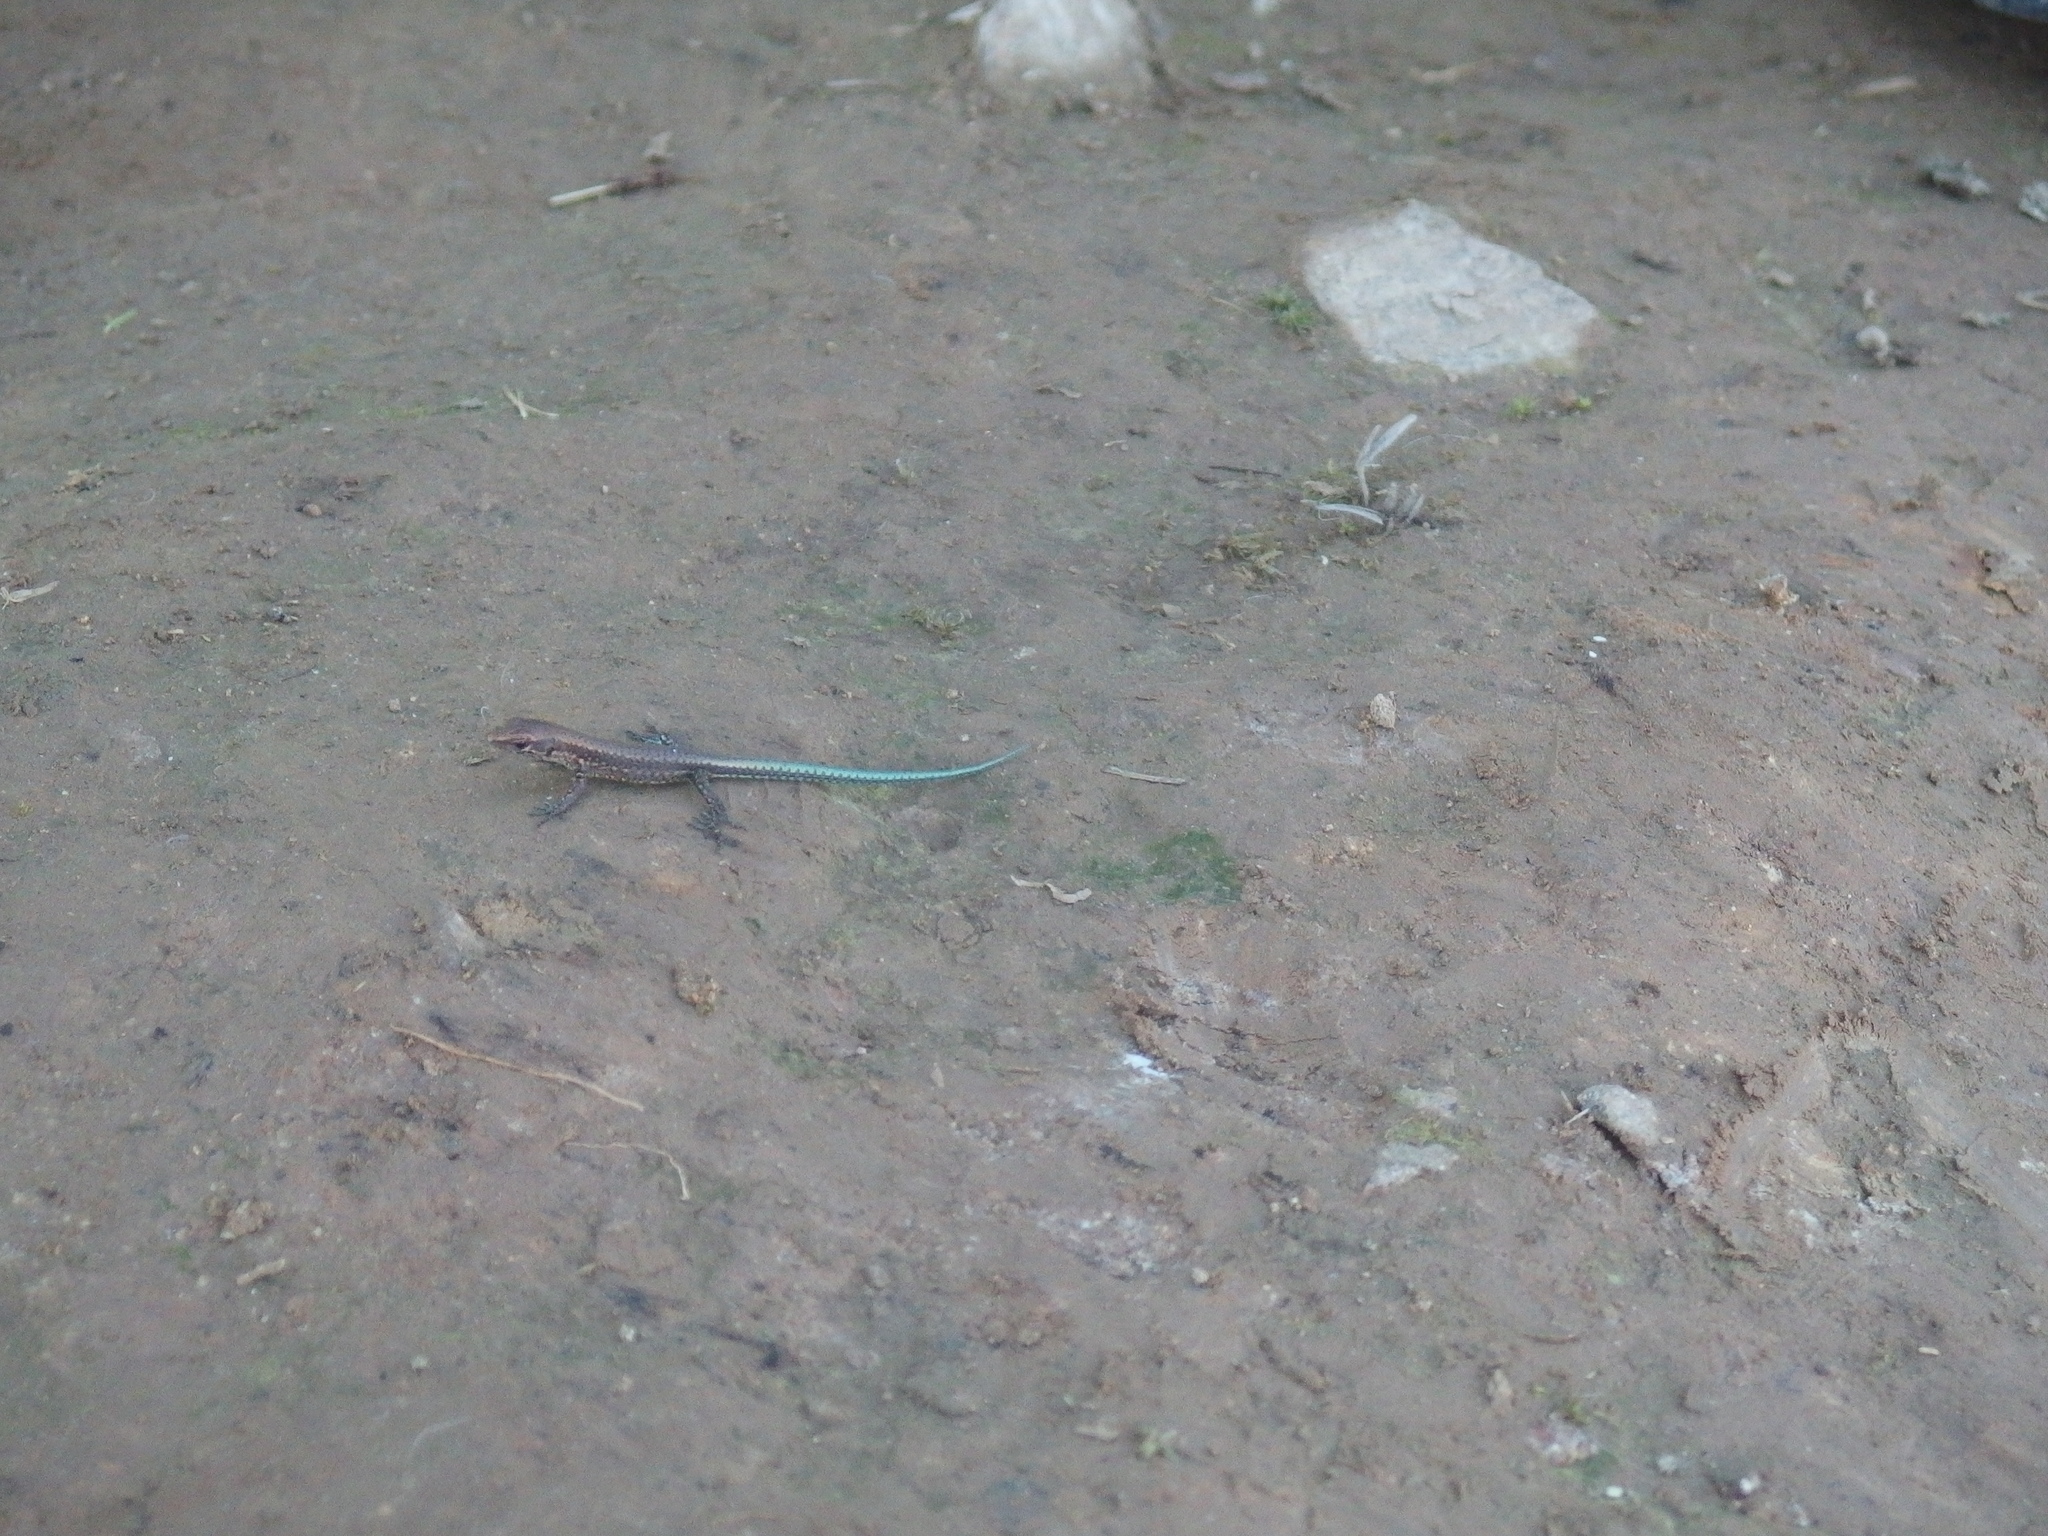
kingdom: Animalia
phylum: Chordata
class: Squamata
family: Lacertidae
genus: Darevskia
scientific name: Darevskia derjugini
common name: Derjugin's lizard
